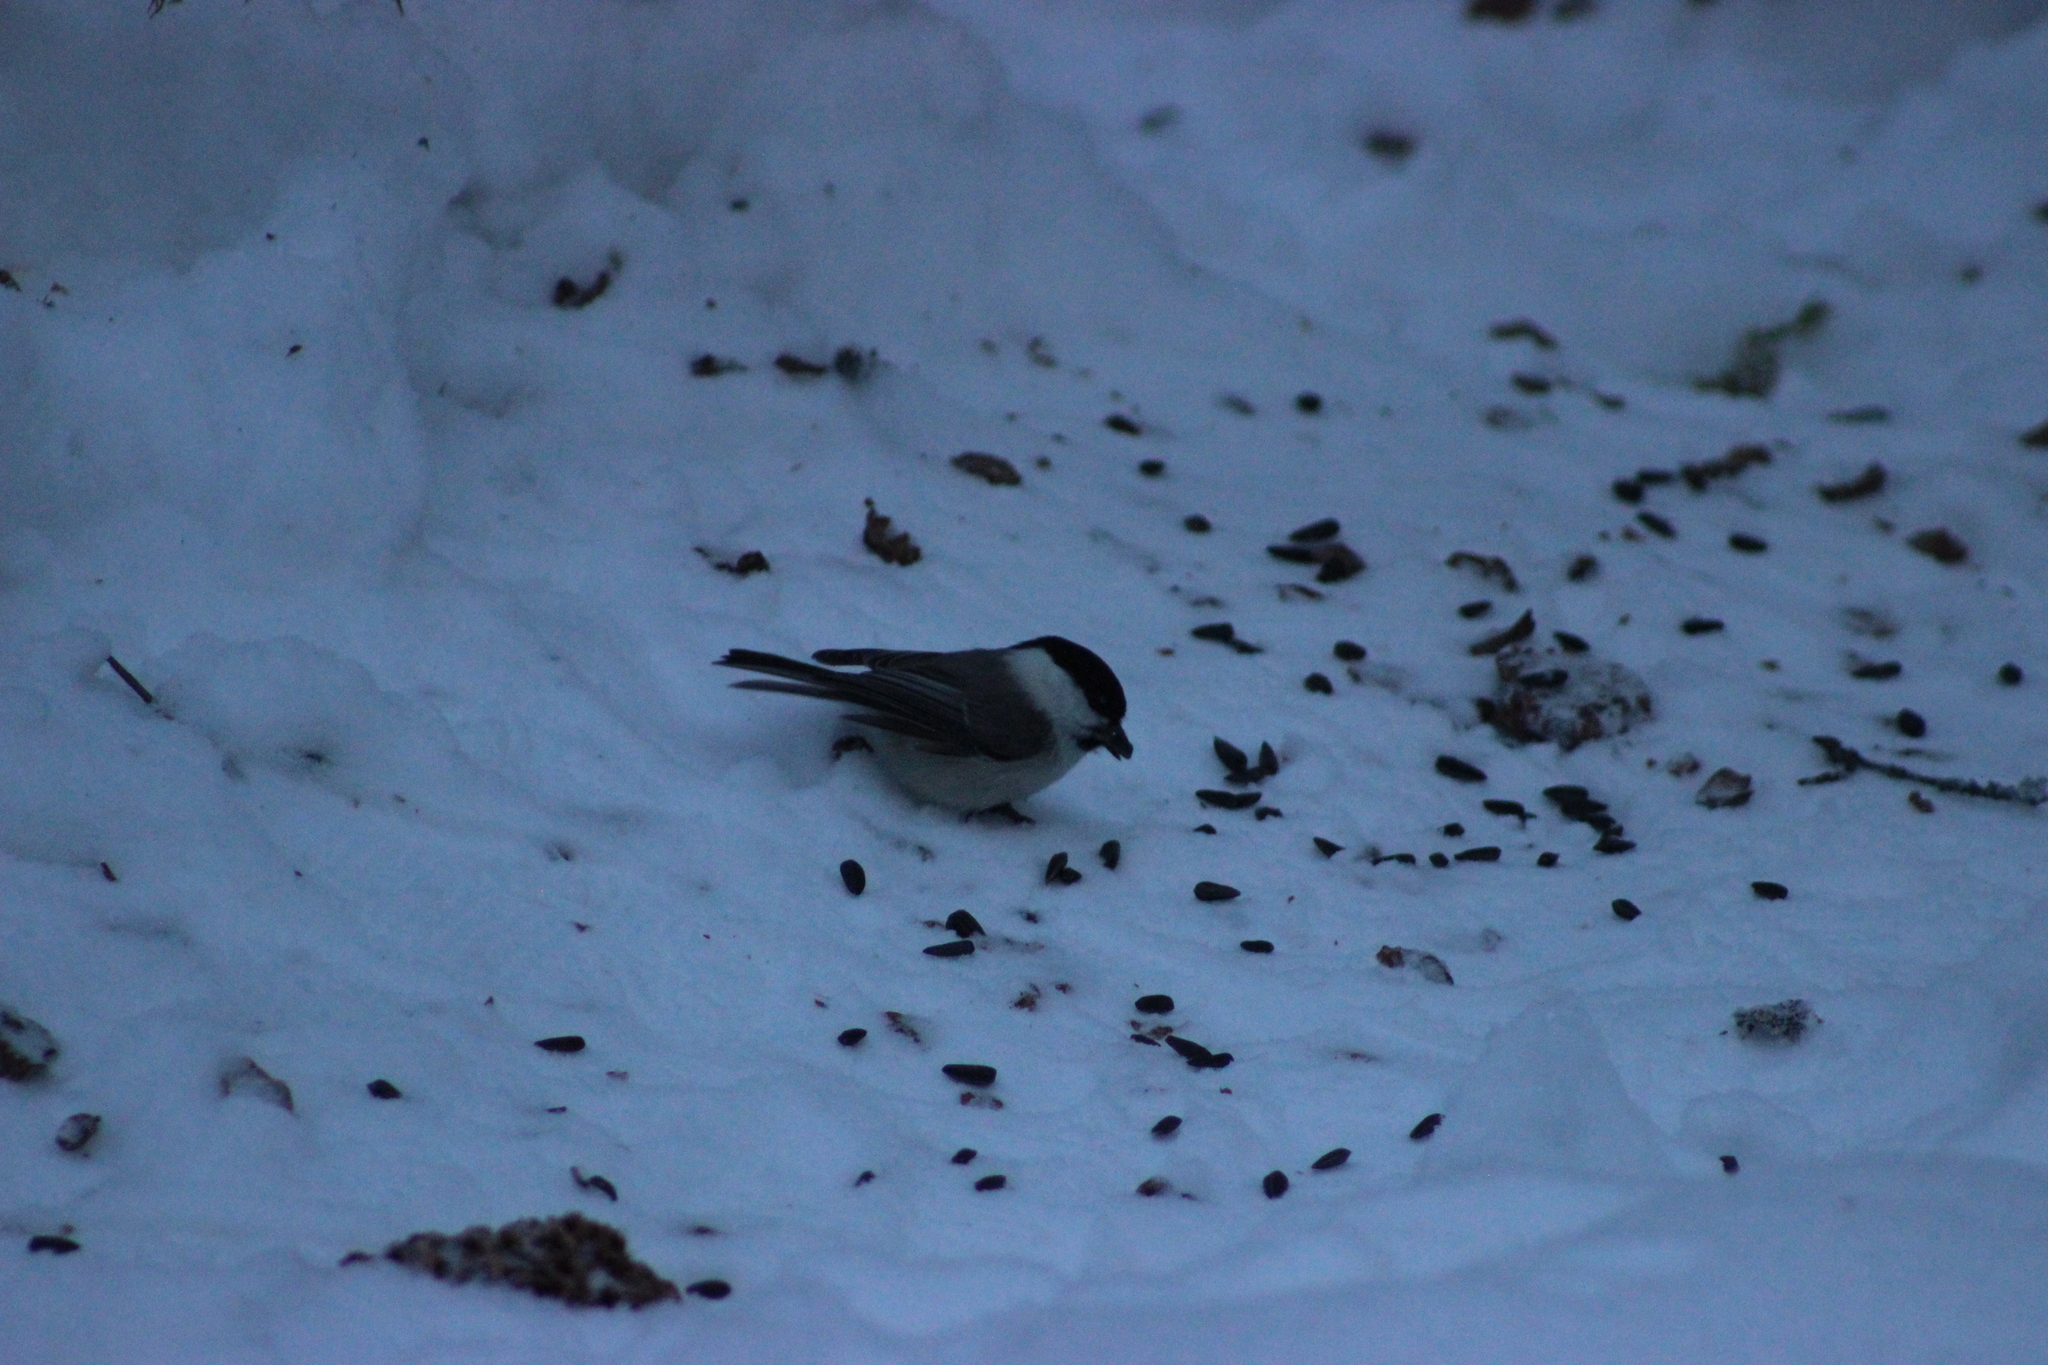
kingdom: Animalia
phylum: Chordata
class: Aves
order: Passeriformes
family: Paridae
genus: Poecile
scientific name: Poecile montanus
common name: Willow tit
